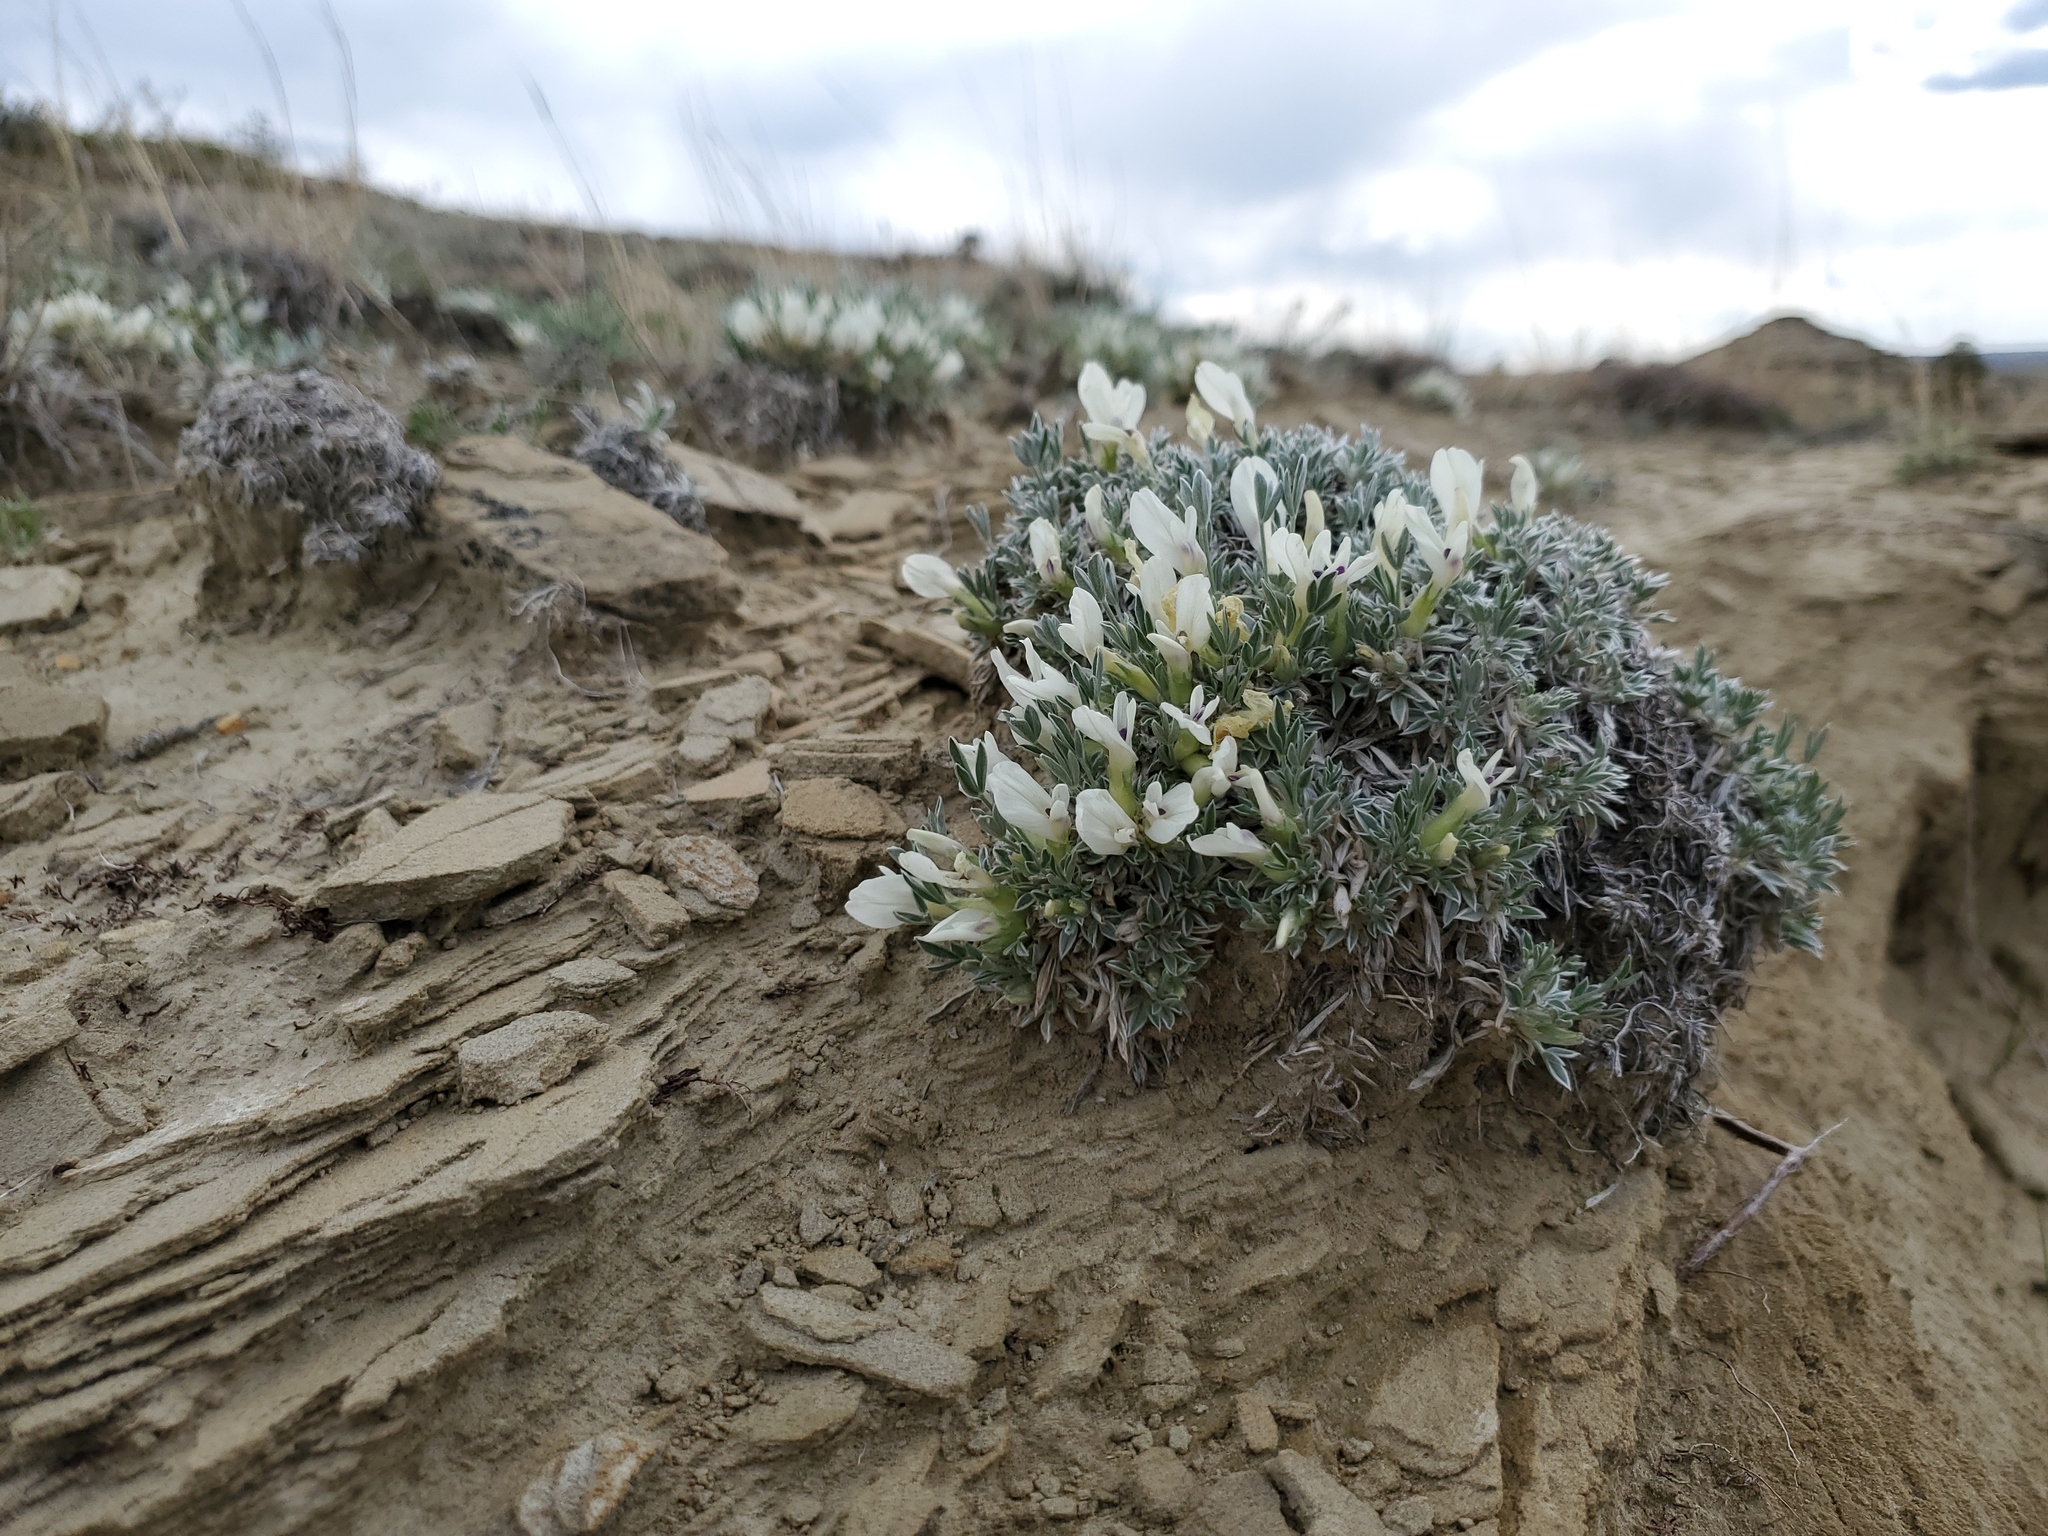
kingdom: Plantae
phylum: Tracheophyta
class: Magnoliopsida
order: Fabales
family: Fabaceae
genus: Astragalus
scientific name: Astragalus gilviflorus
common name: Cushion milk-vetch
